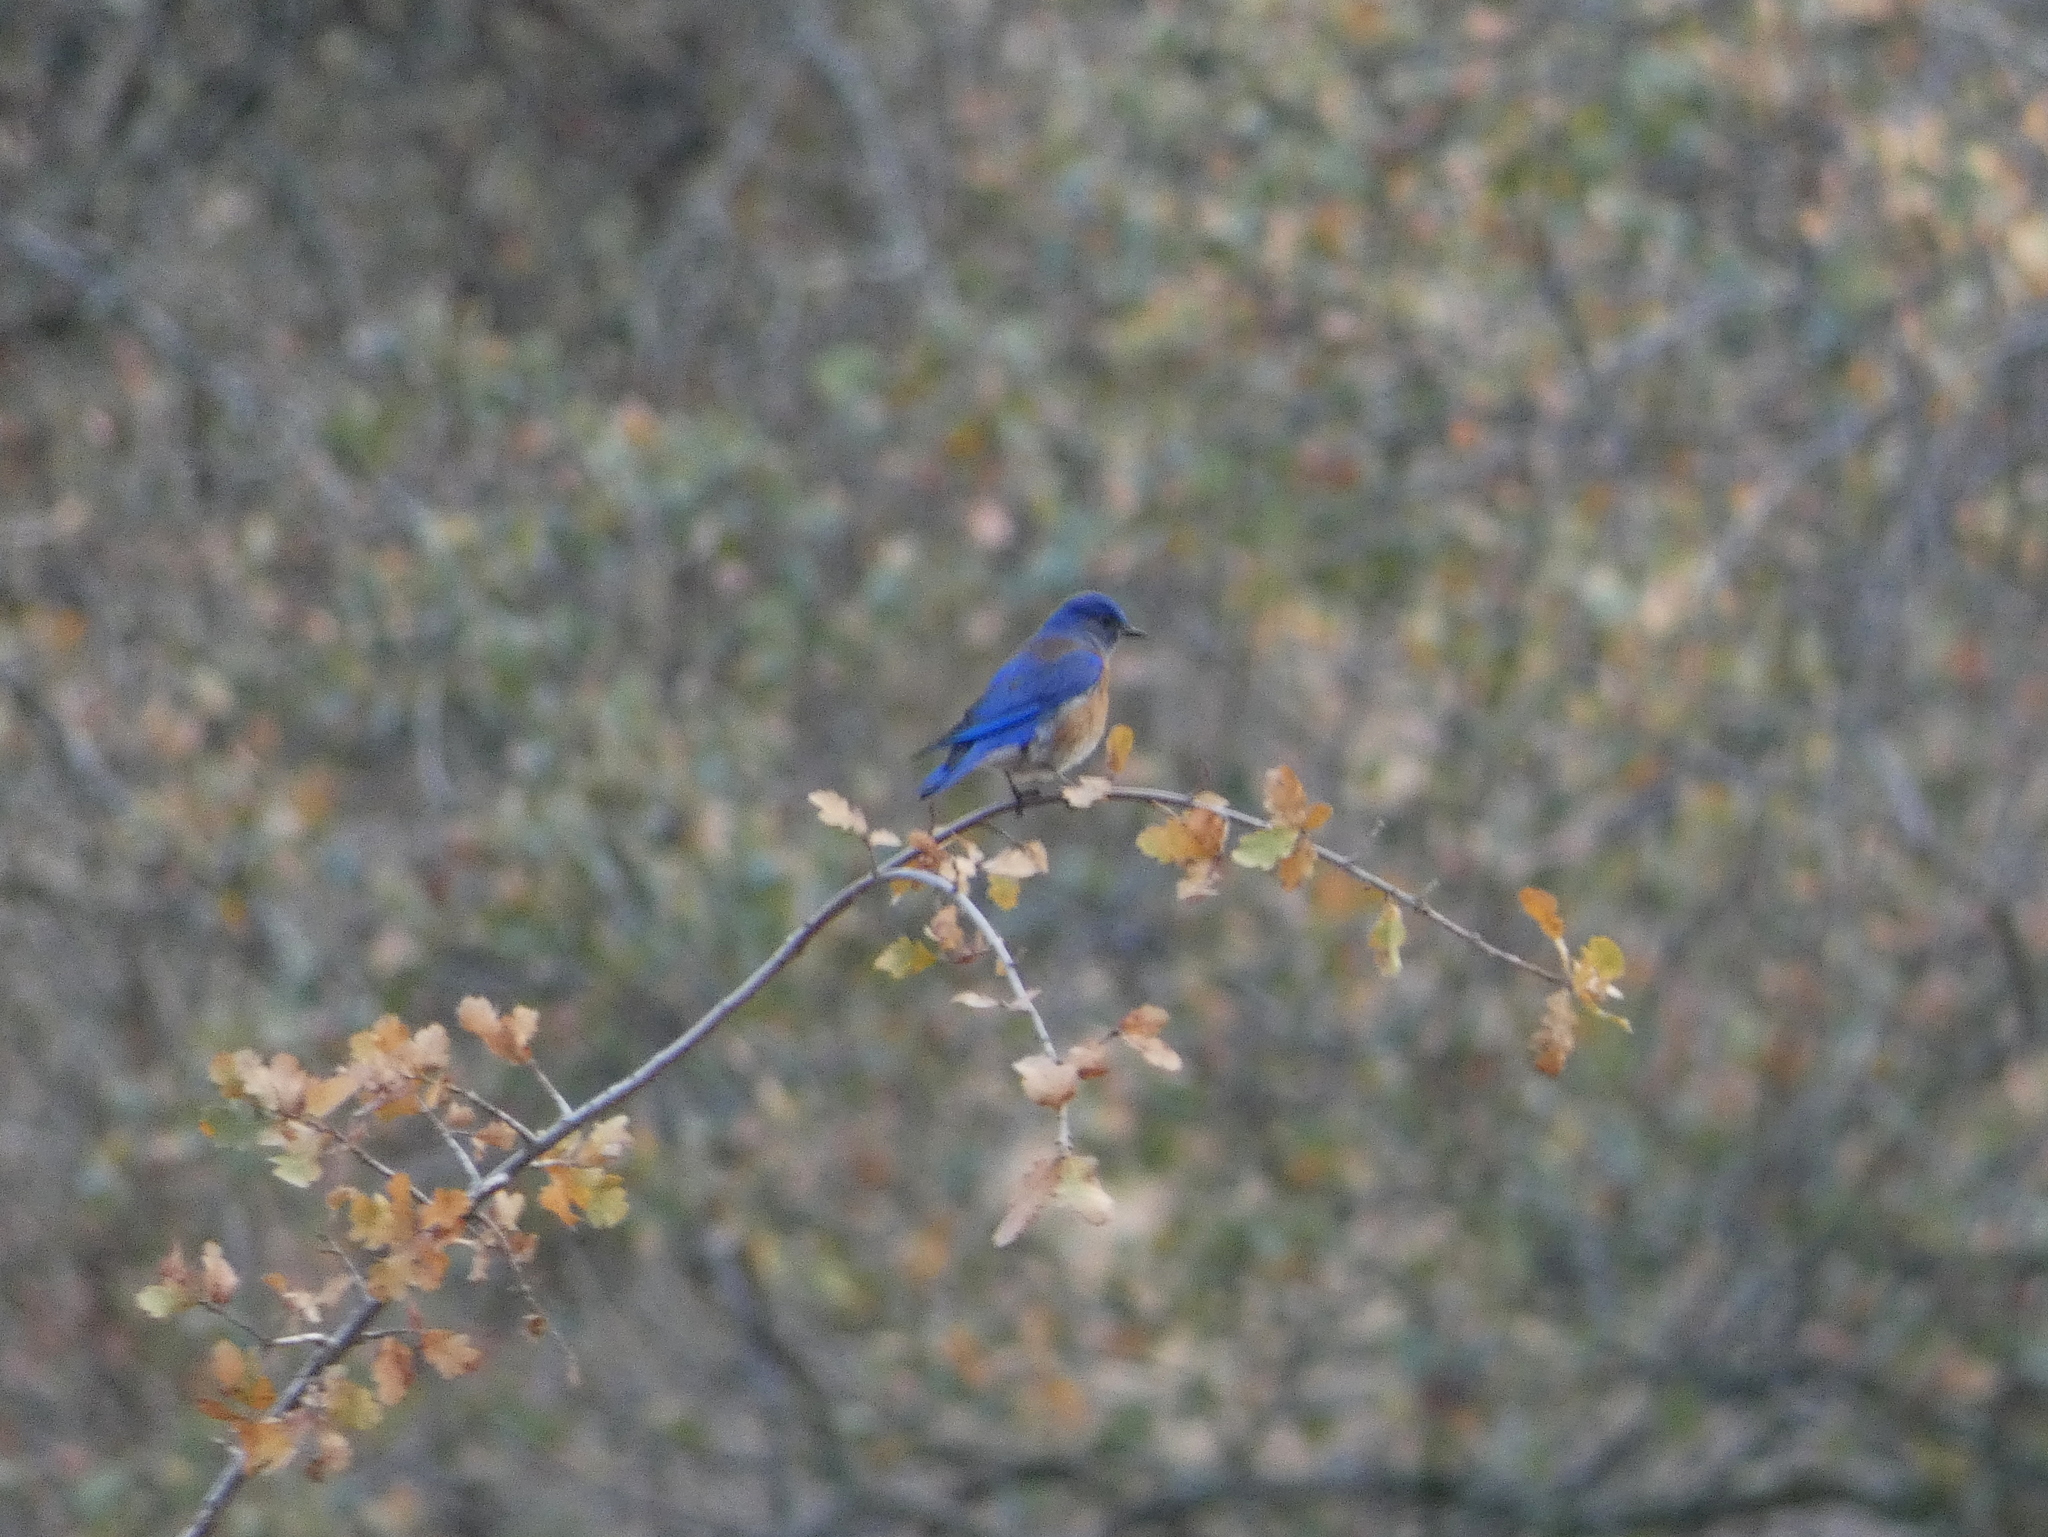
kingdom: Animalia
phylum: Chordata
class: Aves
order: Passeriformes
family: Turdidae
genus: Sialia
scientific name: Sialia mexicana
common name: Western bluebird
